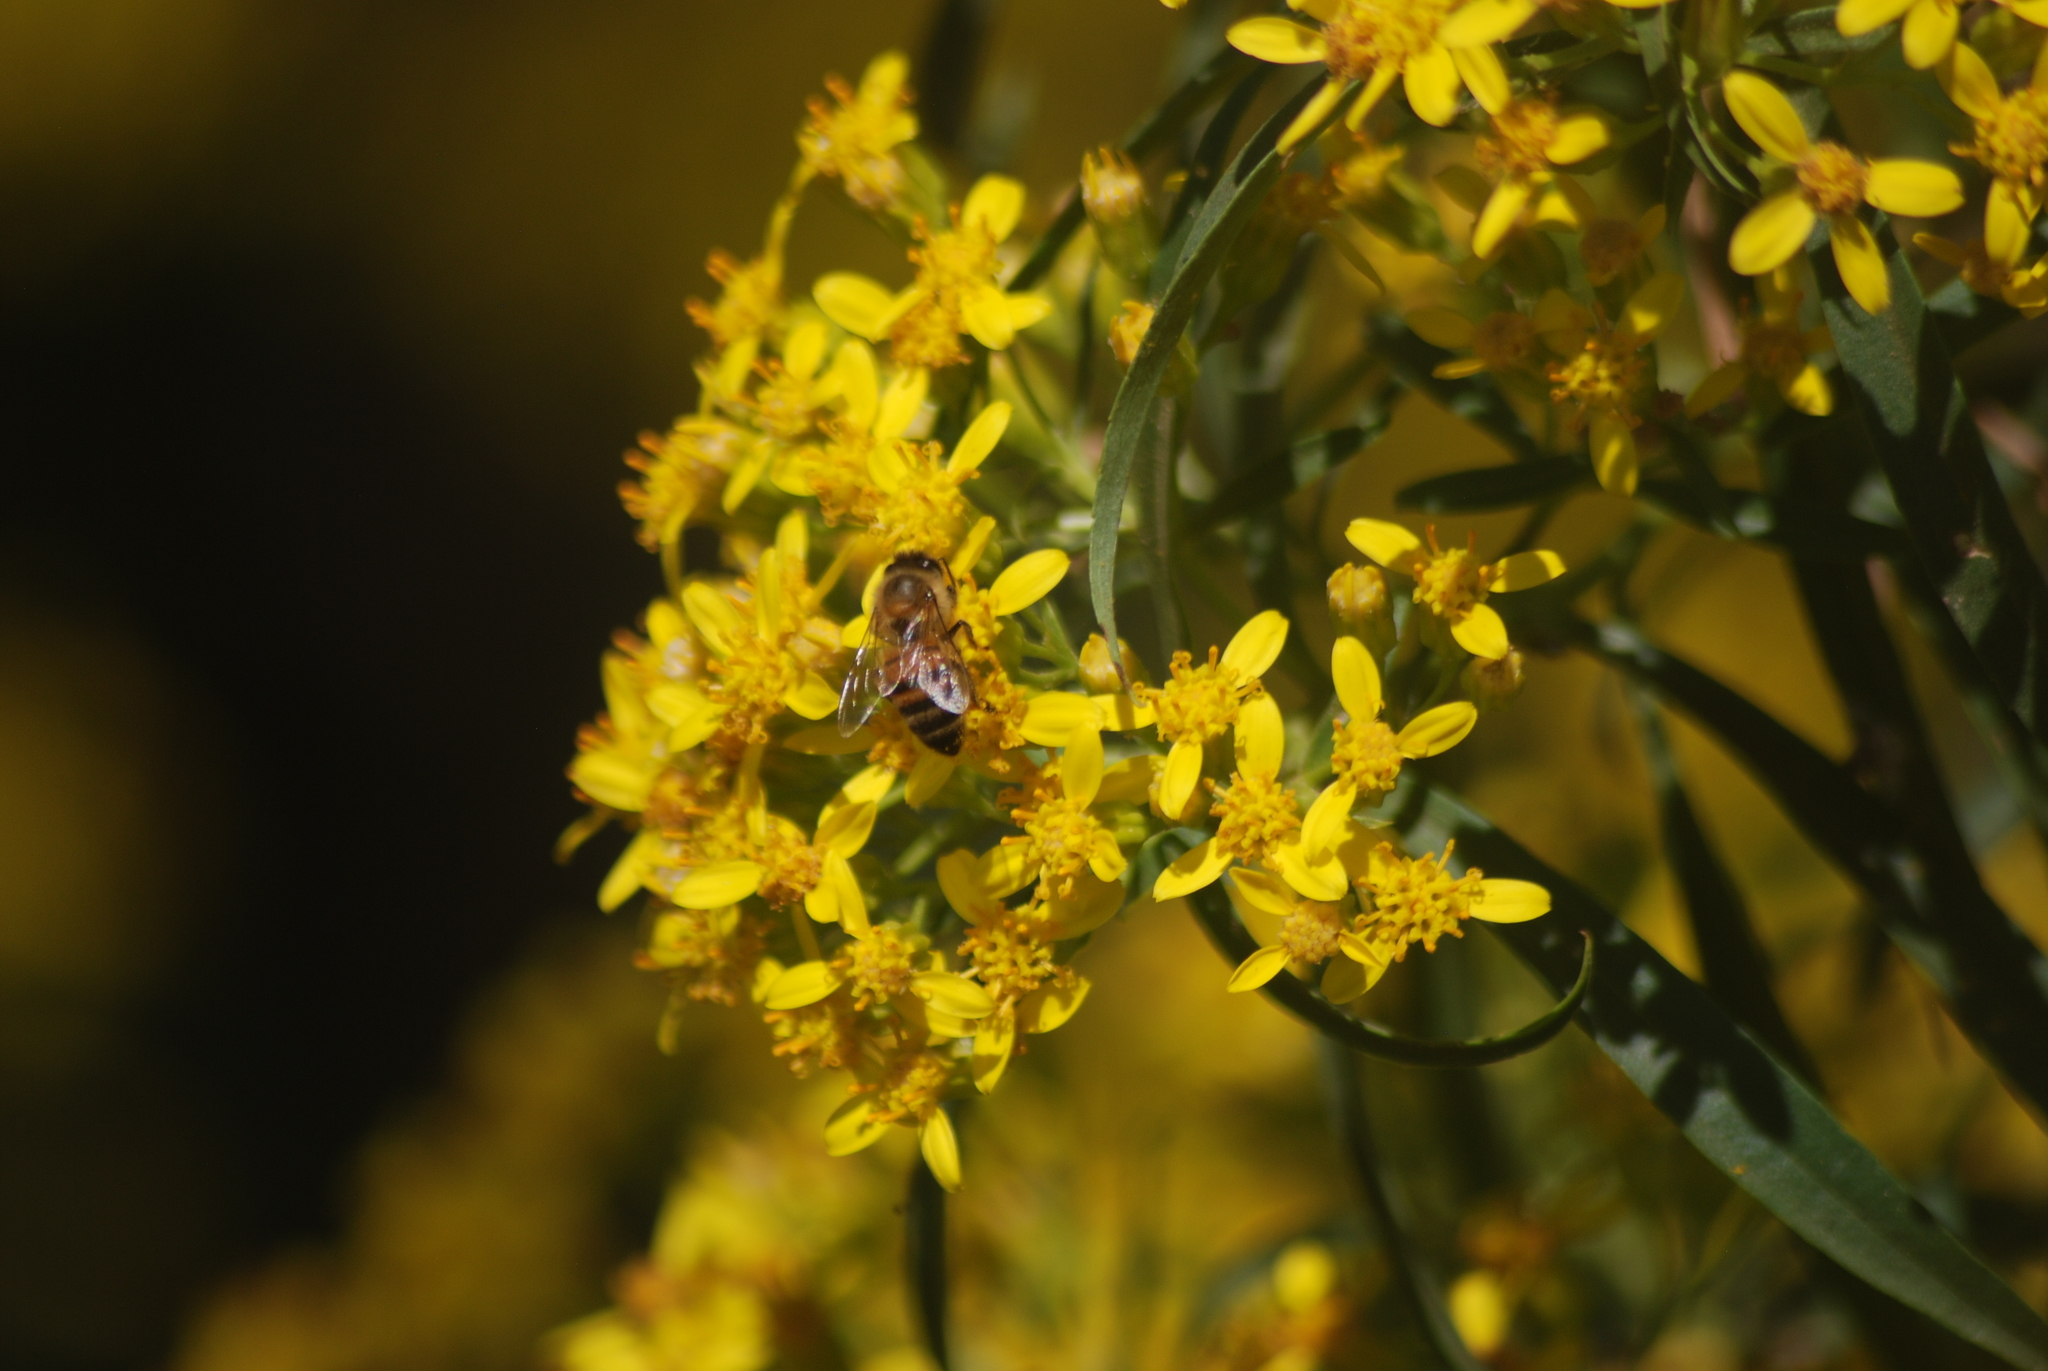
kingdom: Plantae
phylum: Tracheophyta
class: Magnoliopsida
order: Asterales
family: Asteraceae
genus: Barkleyanthus
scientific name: Barkleyanthus salicifolius
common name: Willow ragwort
